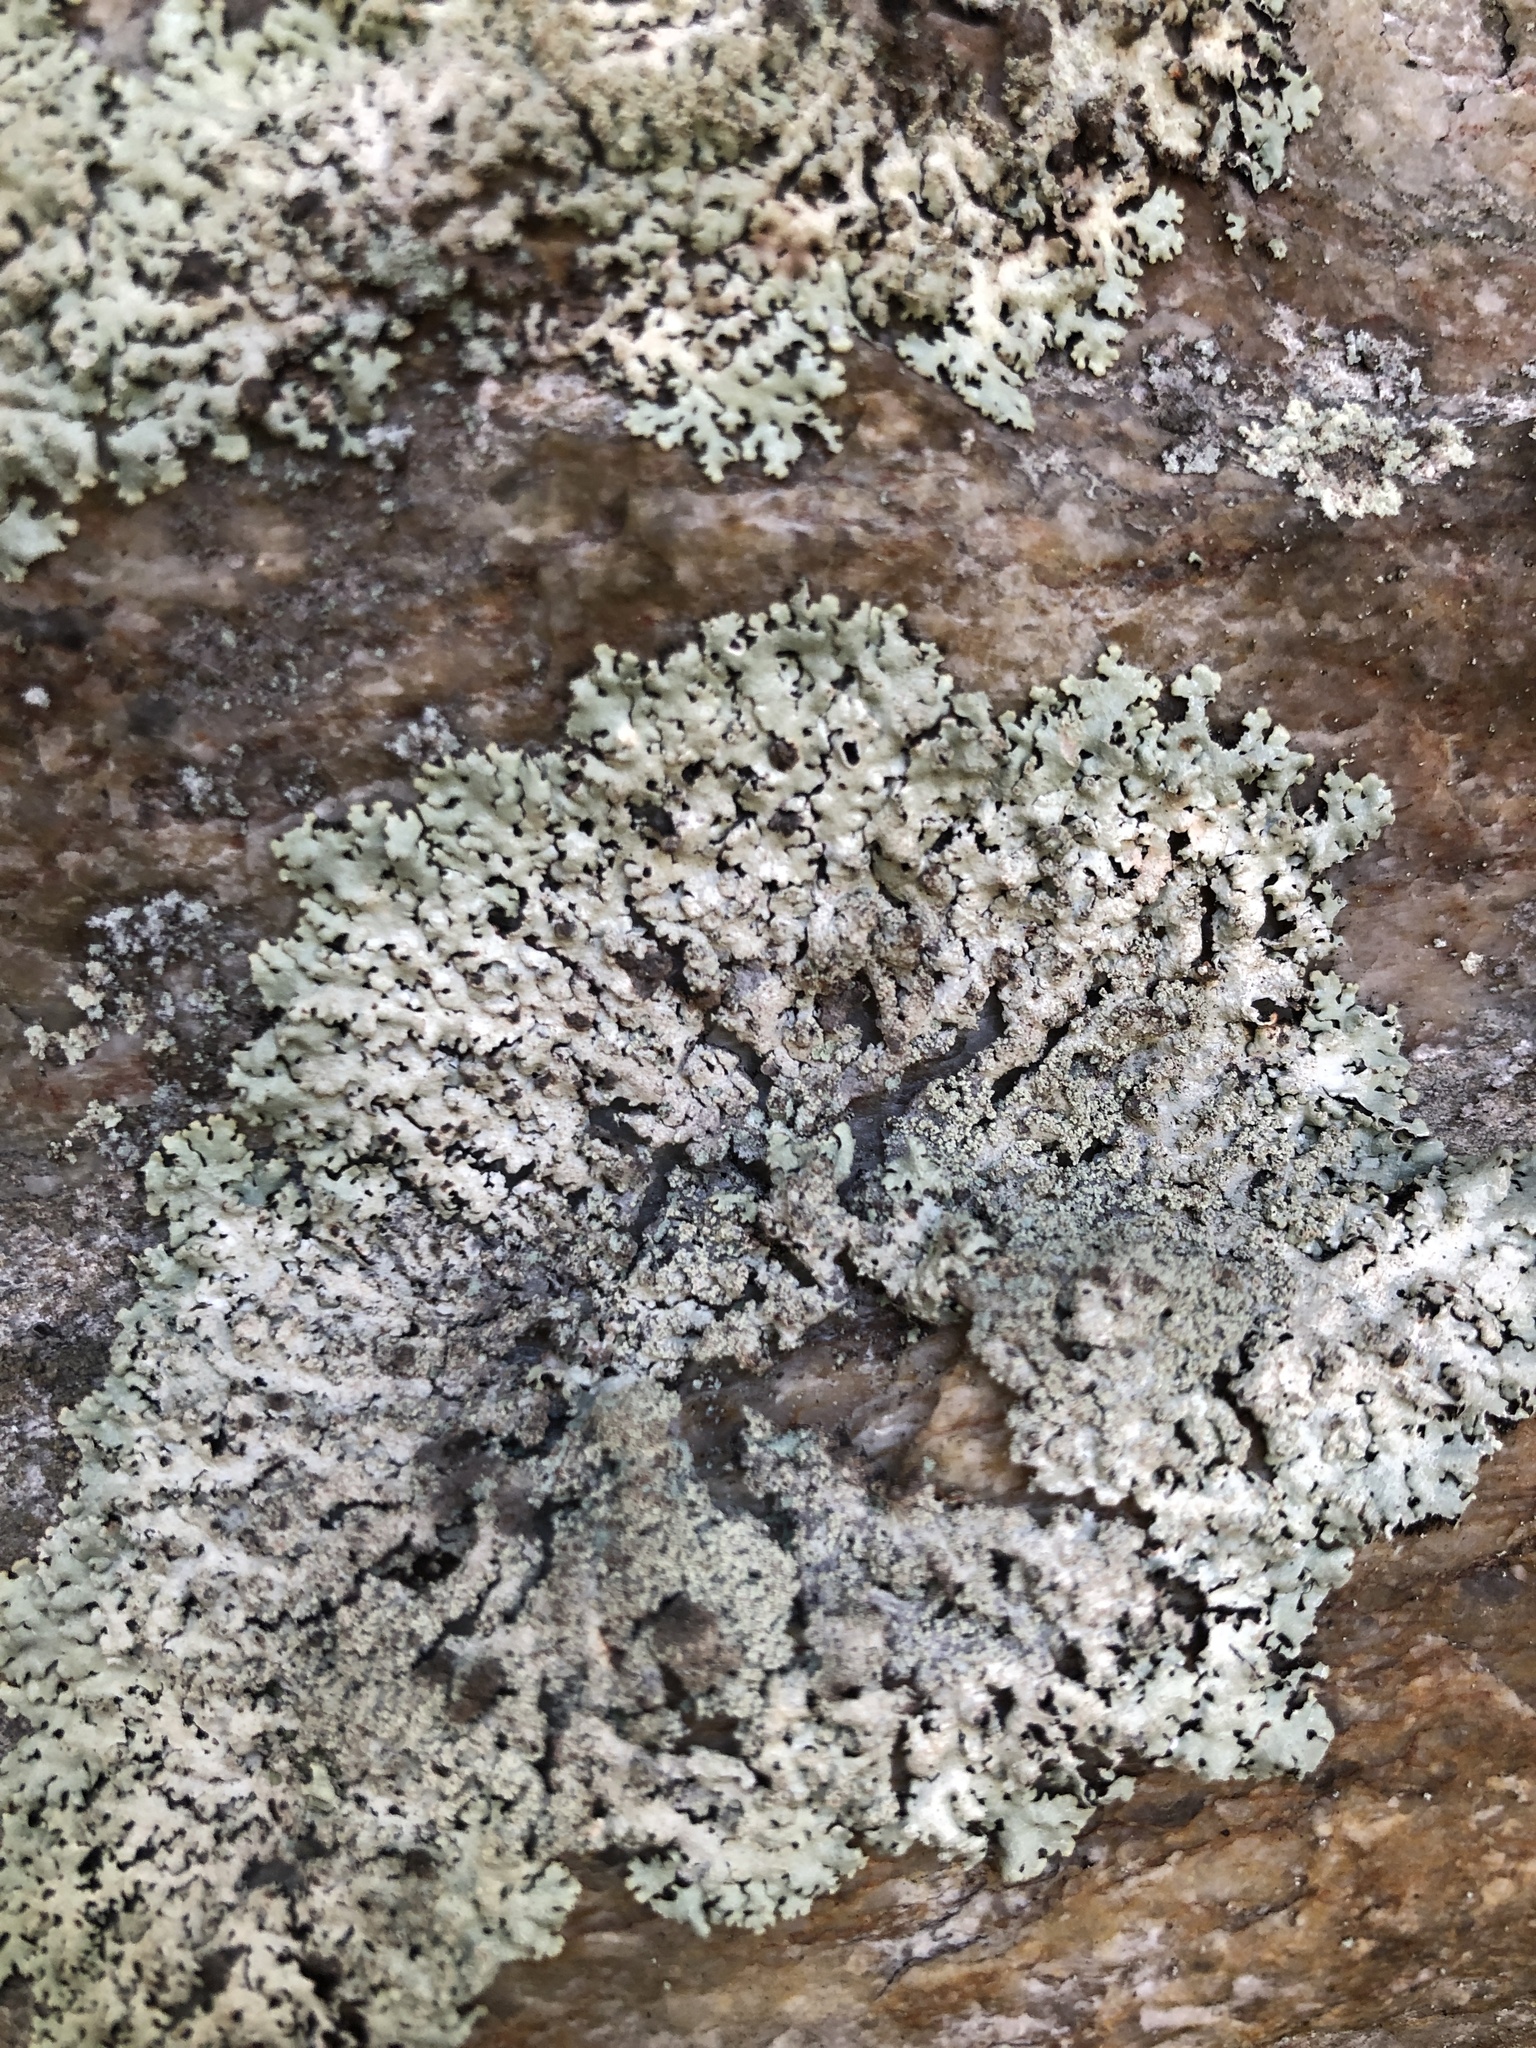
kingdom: Fungi
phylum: Ascomycota
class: Lecanoromycetes
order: Lecanorales
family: Parmeliaceae
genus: Hypotrachyna
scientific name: Hypotrachyna pustulifera
